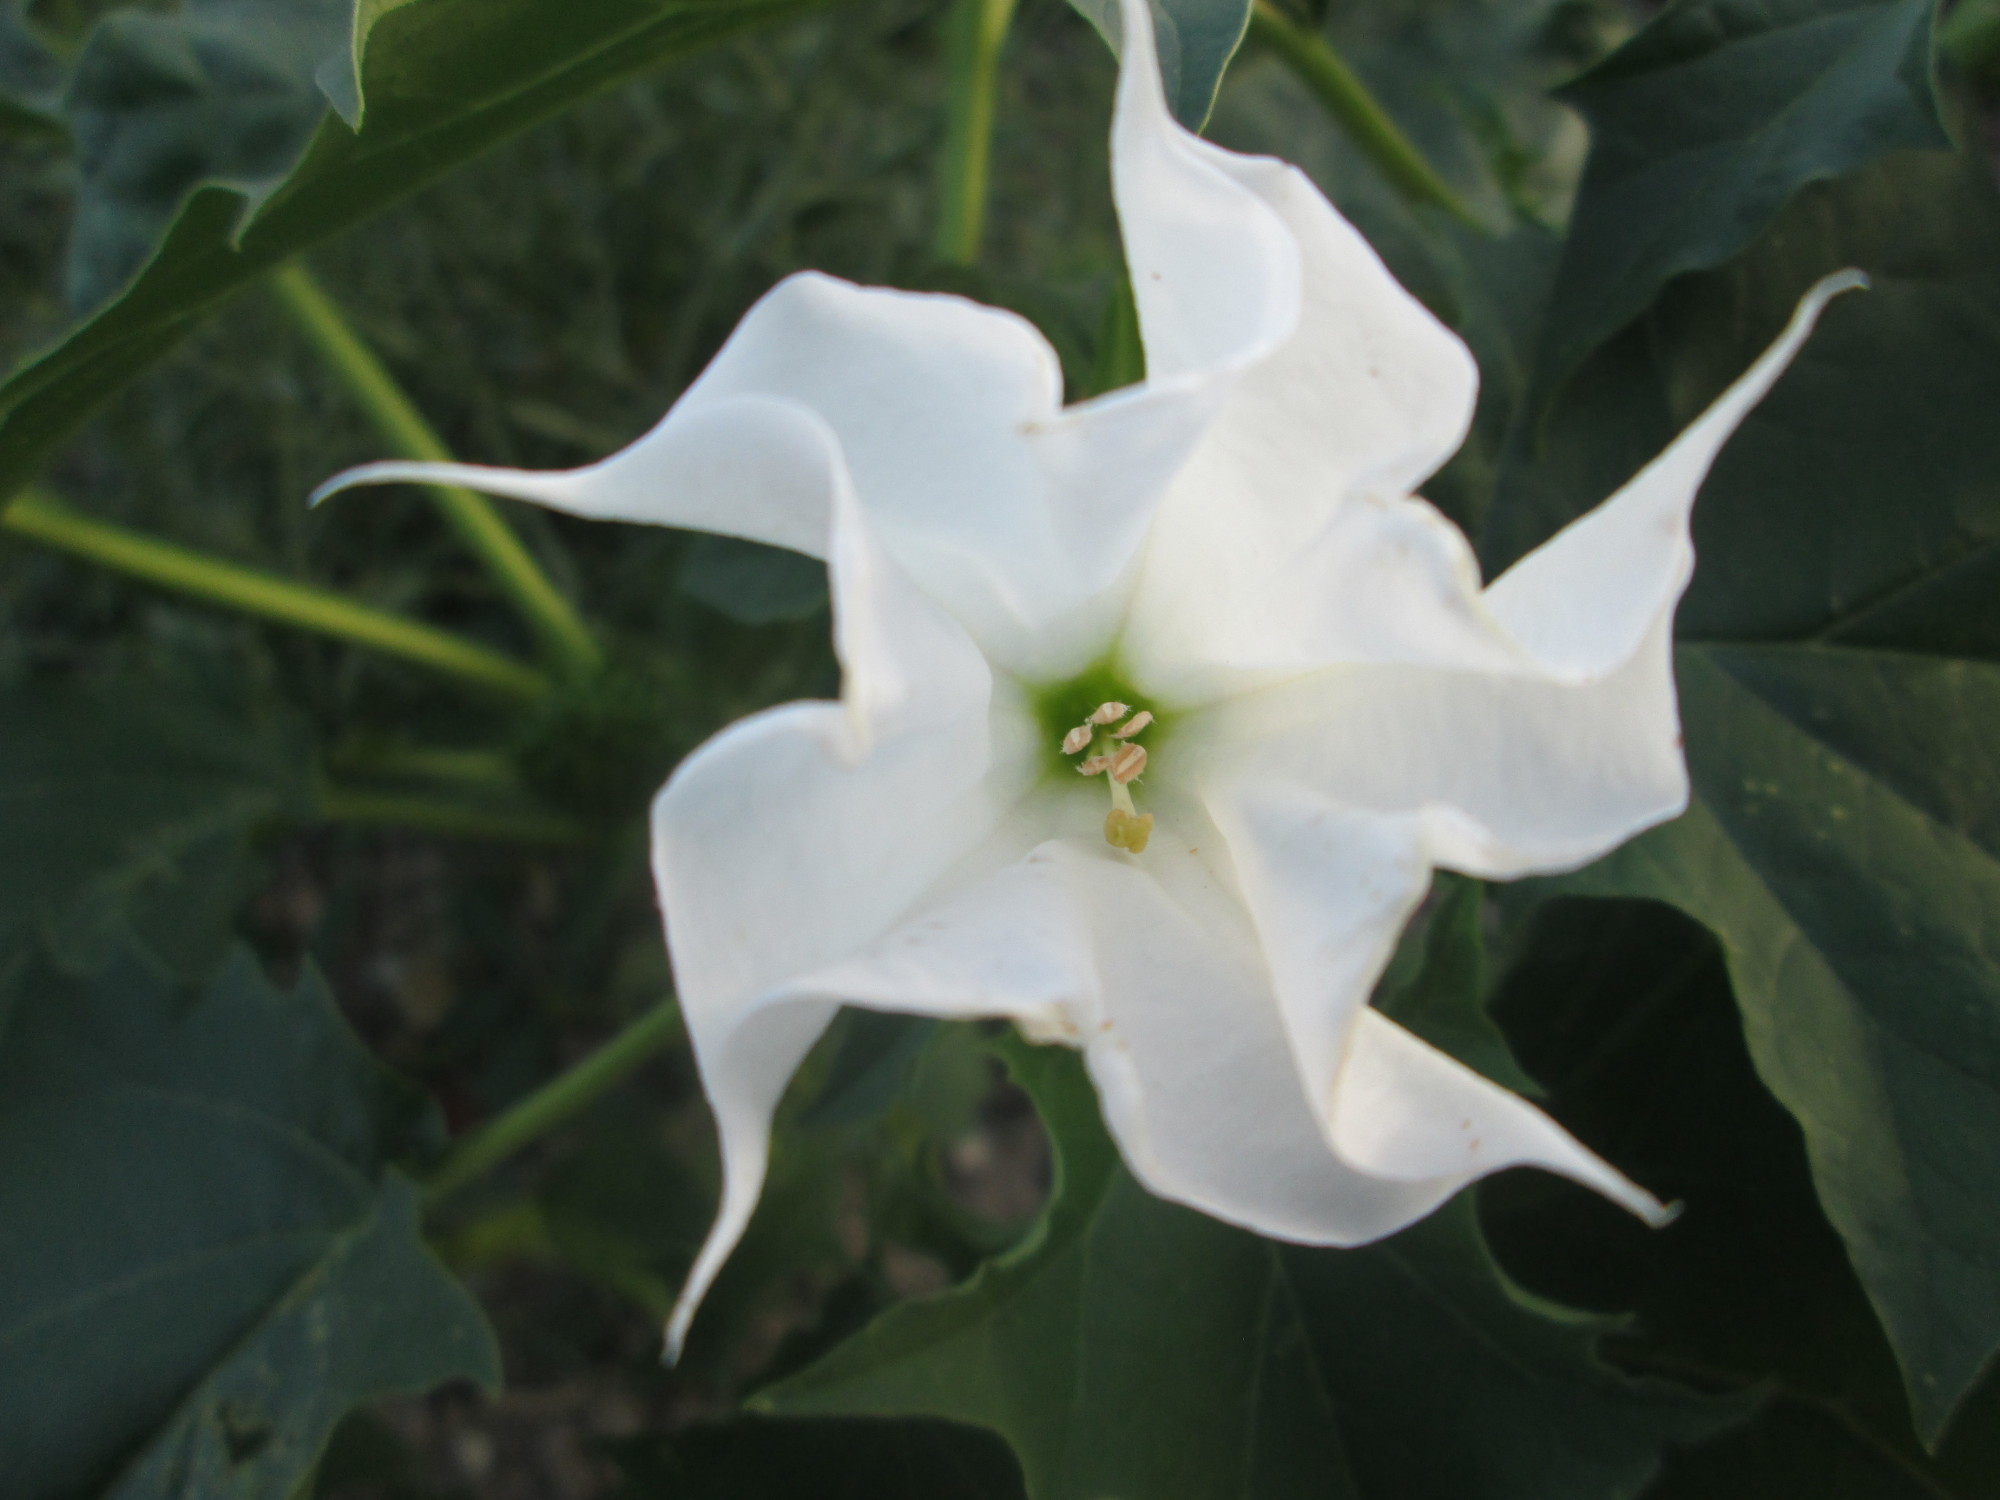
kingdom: Plantae
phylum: Tracheophyta
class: Magnoliopsida
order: Solanales
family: Solanaceae
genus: Datura
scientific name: Datura stramonium
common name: Thorn-apple
